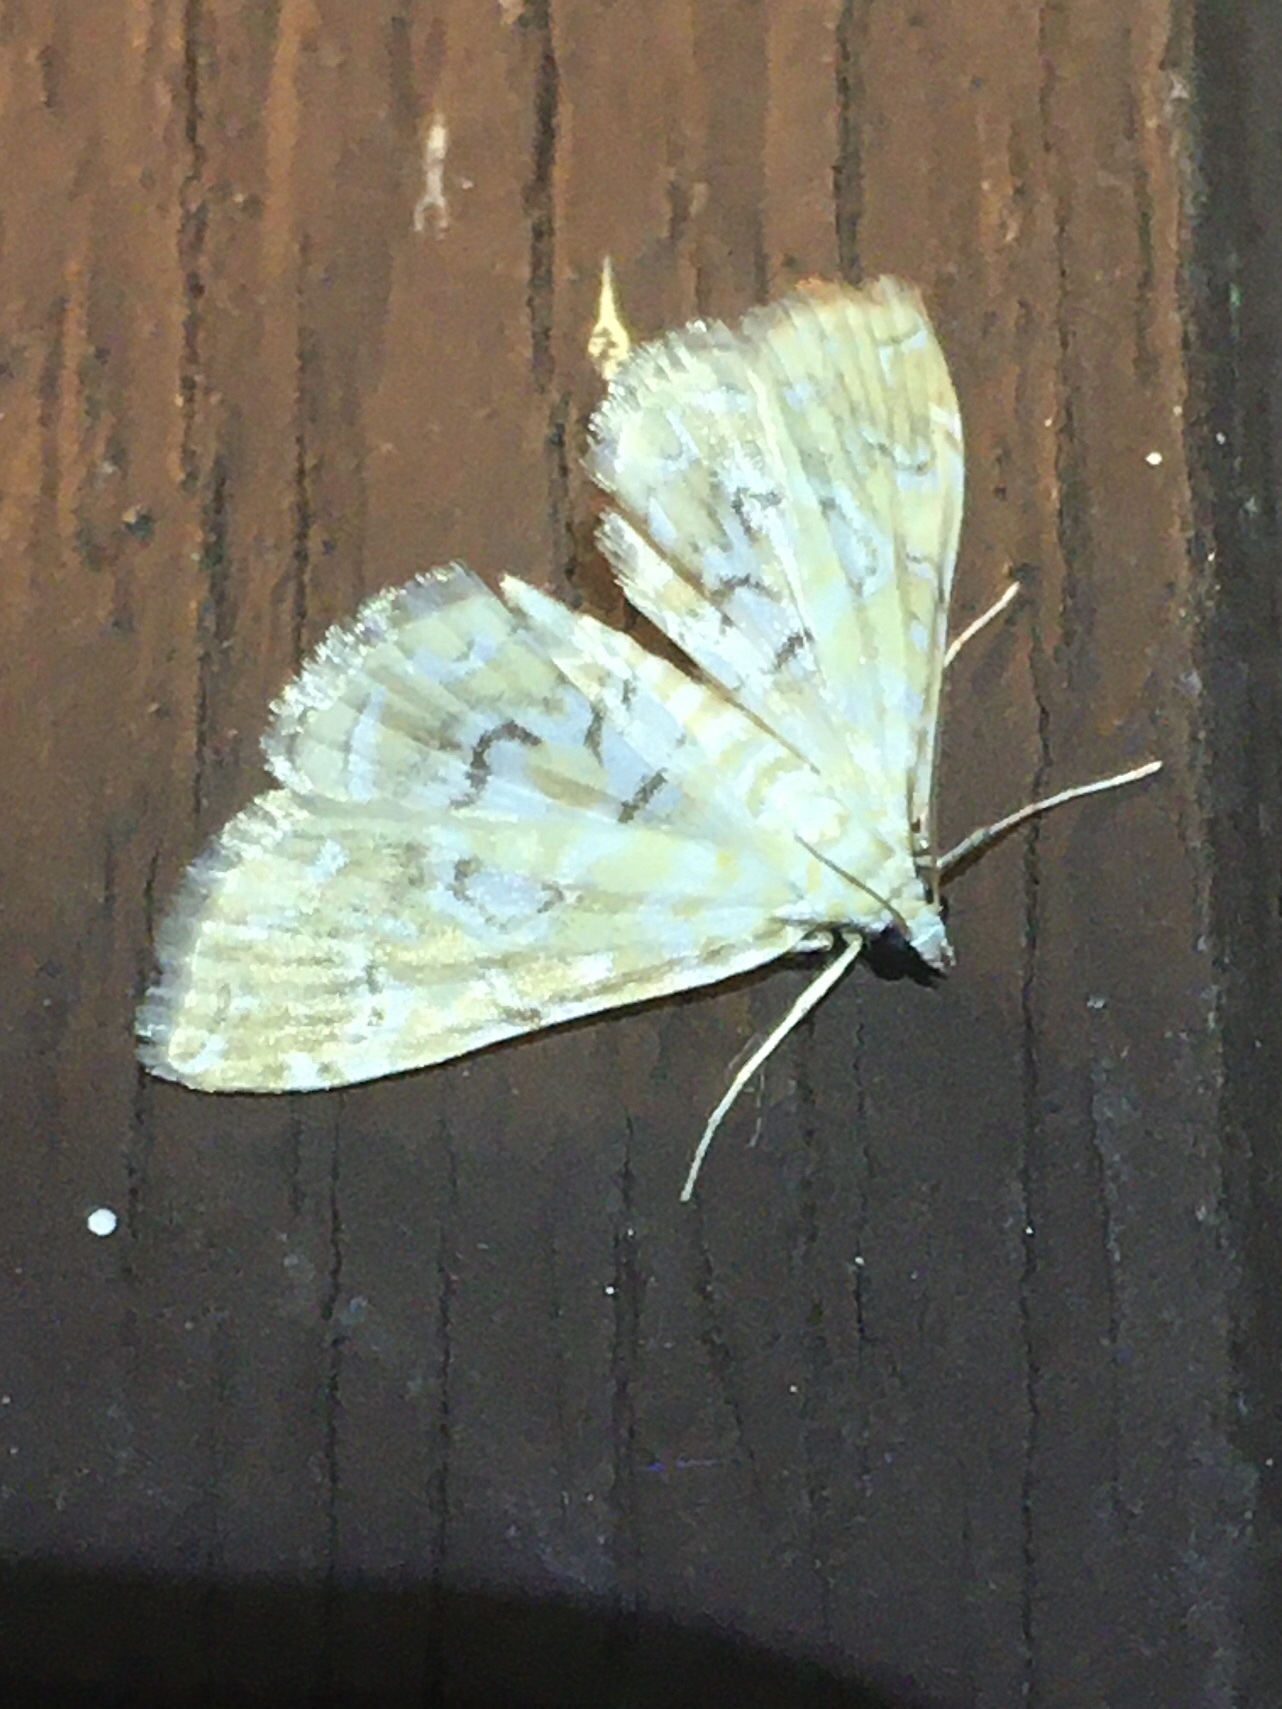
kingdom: Animalia
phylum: Arthropoda
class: Insecta
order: Lepidoptera
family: Crambidae
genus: Elophila
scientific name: Elophila icciusalis
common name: Pondside pyralid moth
